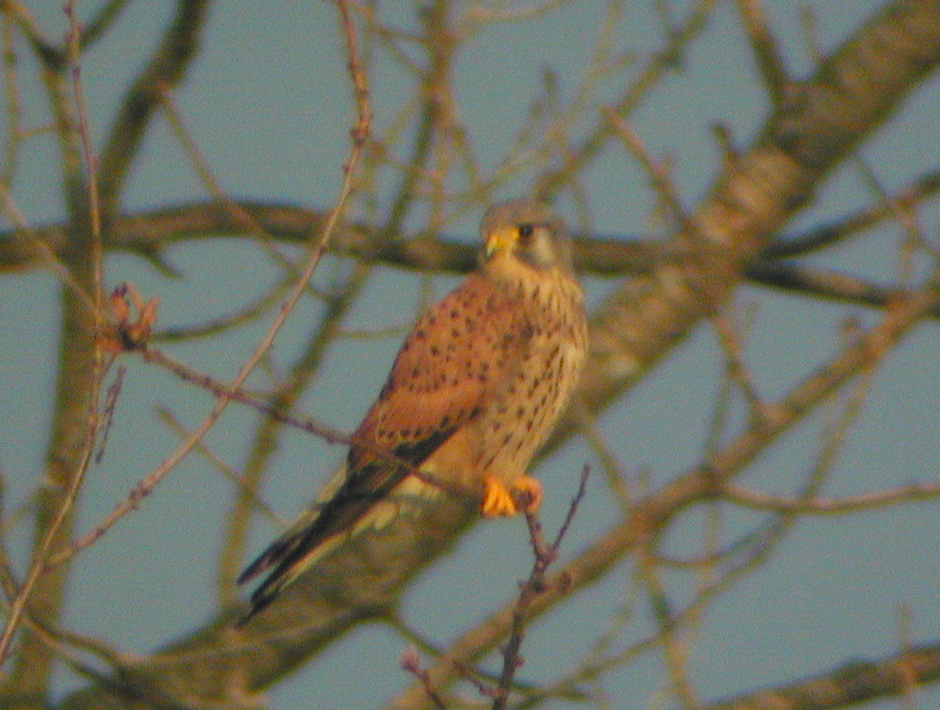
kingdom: Animalia
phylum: Chordata
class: Aves
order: Falconiformes
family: Falconidae
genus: Falco
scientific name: Falco tinnunculus
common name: Common kestrel
